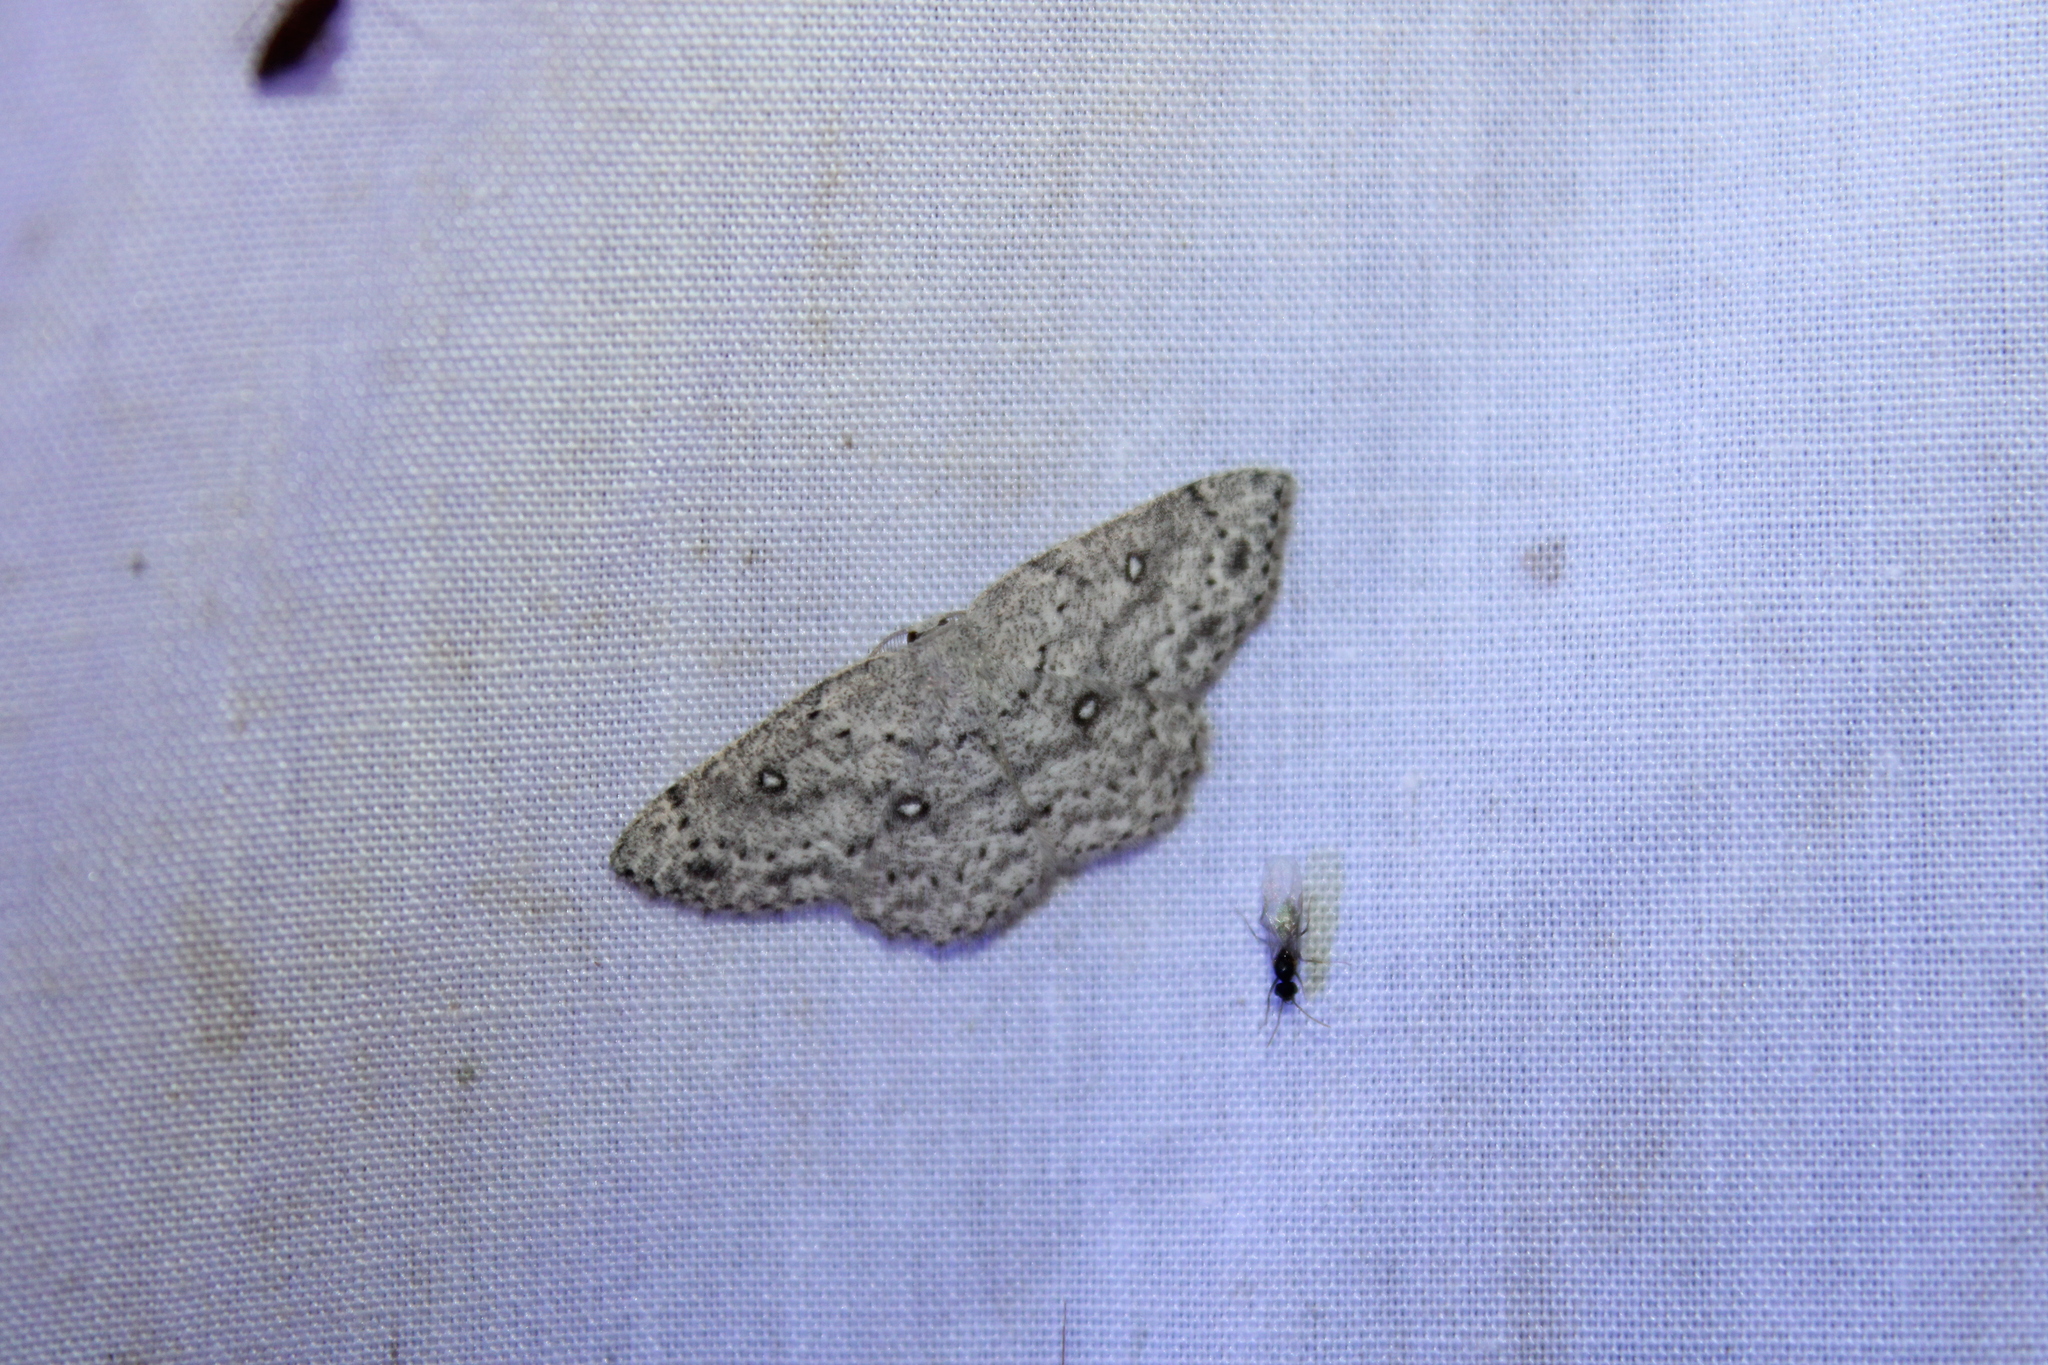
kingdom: Animalia
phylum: Arthropoda
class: Insecta
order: Lepidoptera
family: Geometridae
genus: Cyclophora
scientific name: Cyclophora pendulinaria
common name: Sweet fern geometer
